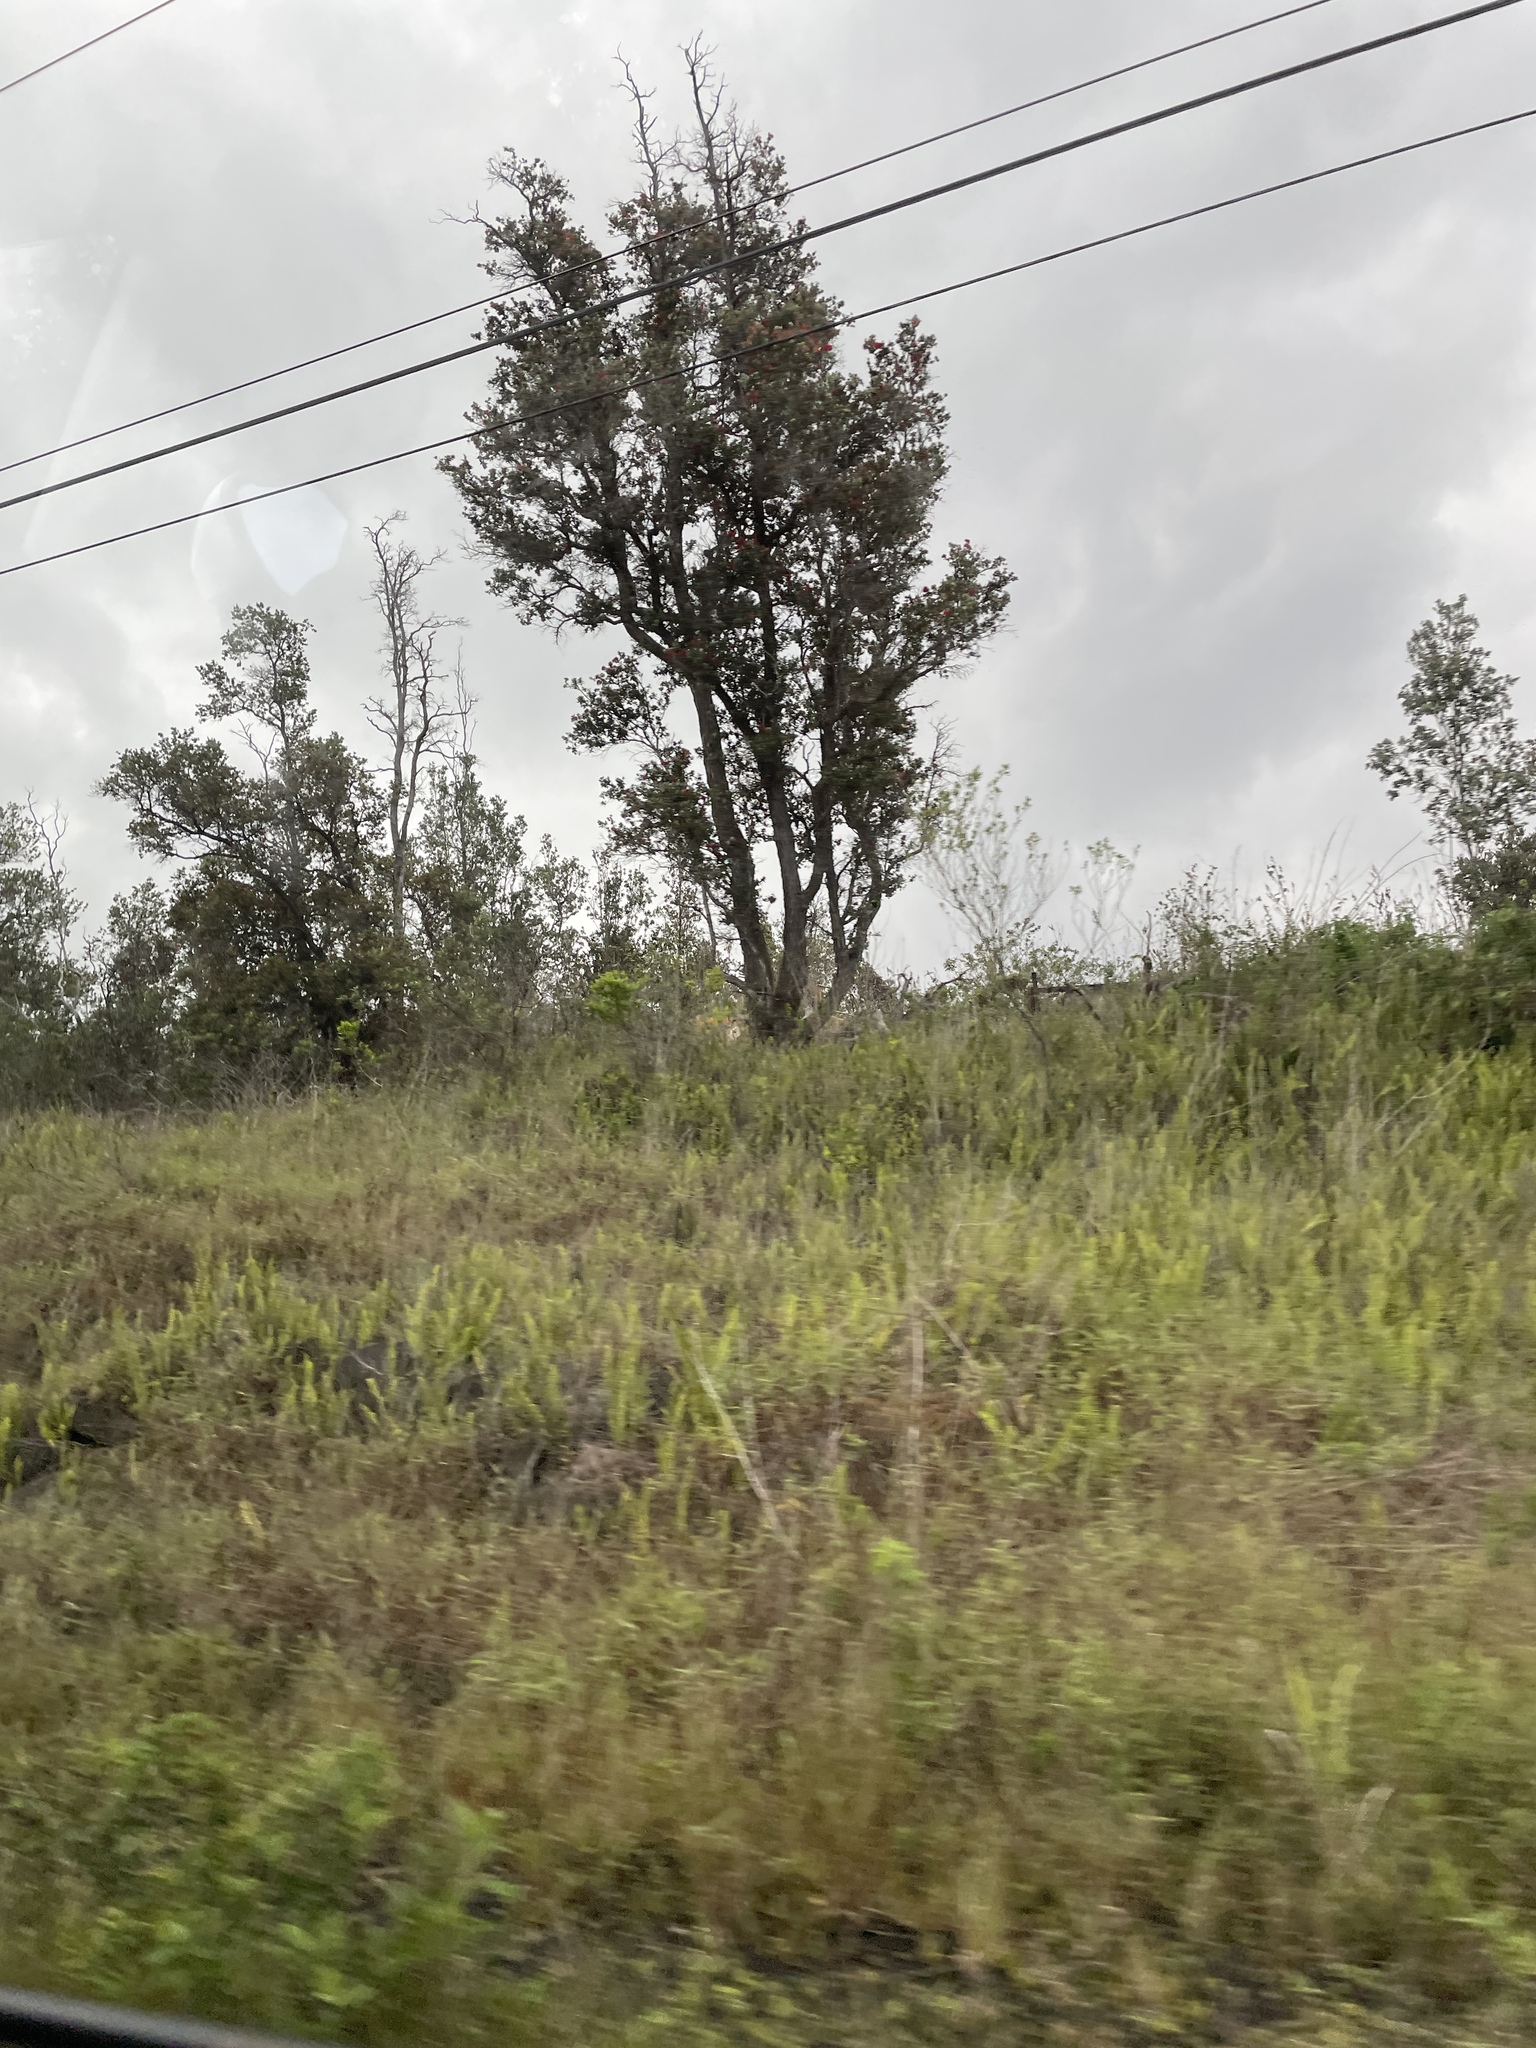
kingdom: Plantae
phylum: Tracheophyta
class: Magnoliopsida
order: Myrtales
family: Myrtaceae
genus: Metrosideros
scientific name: Metrosideros polymorpha
